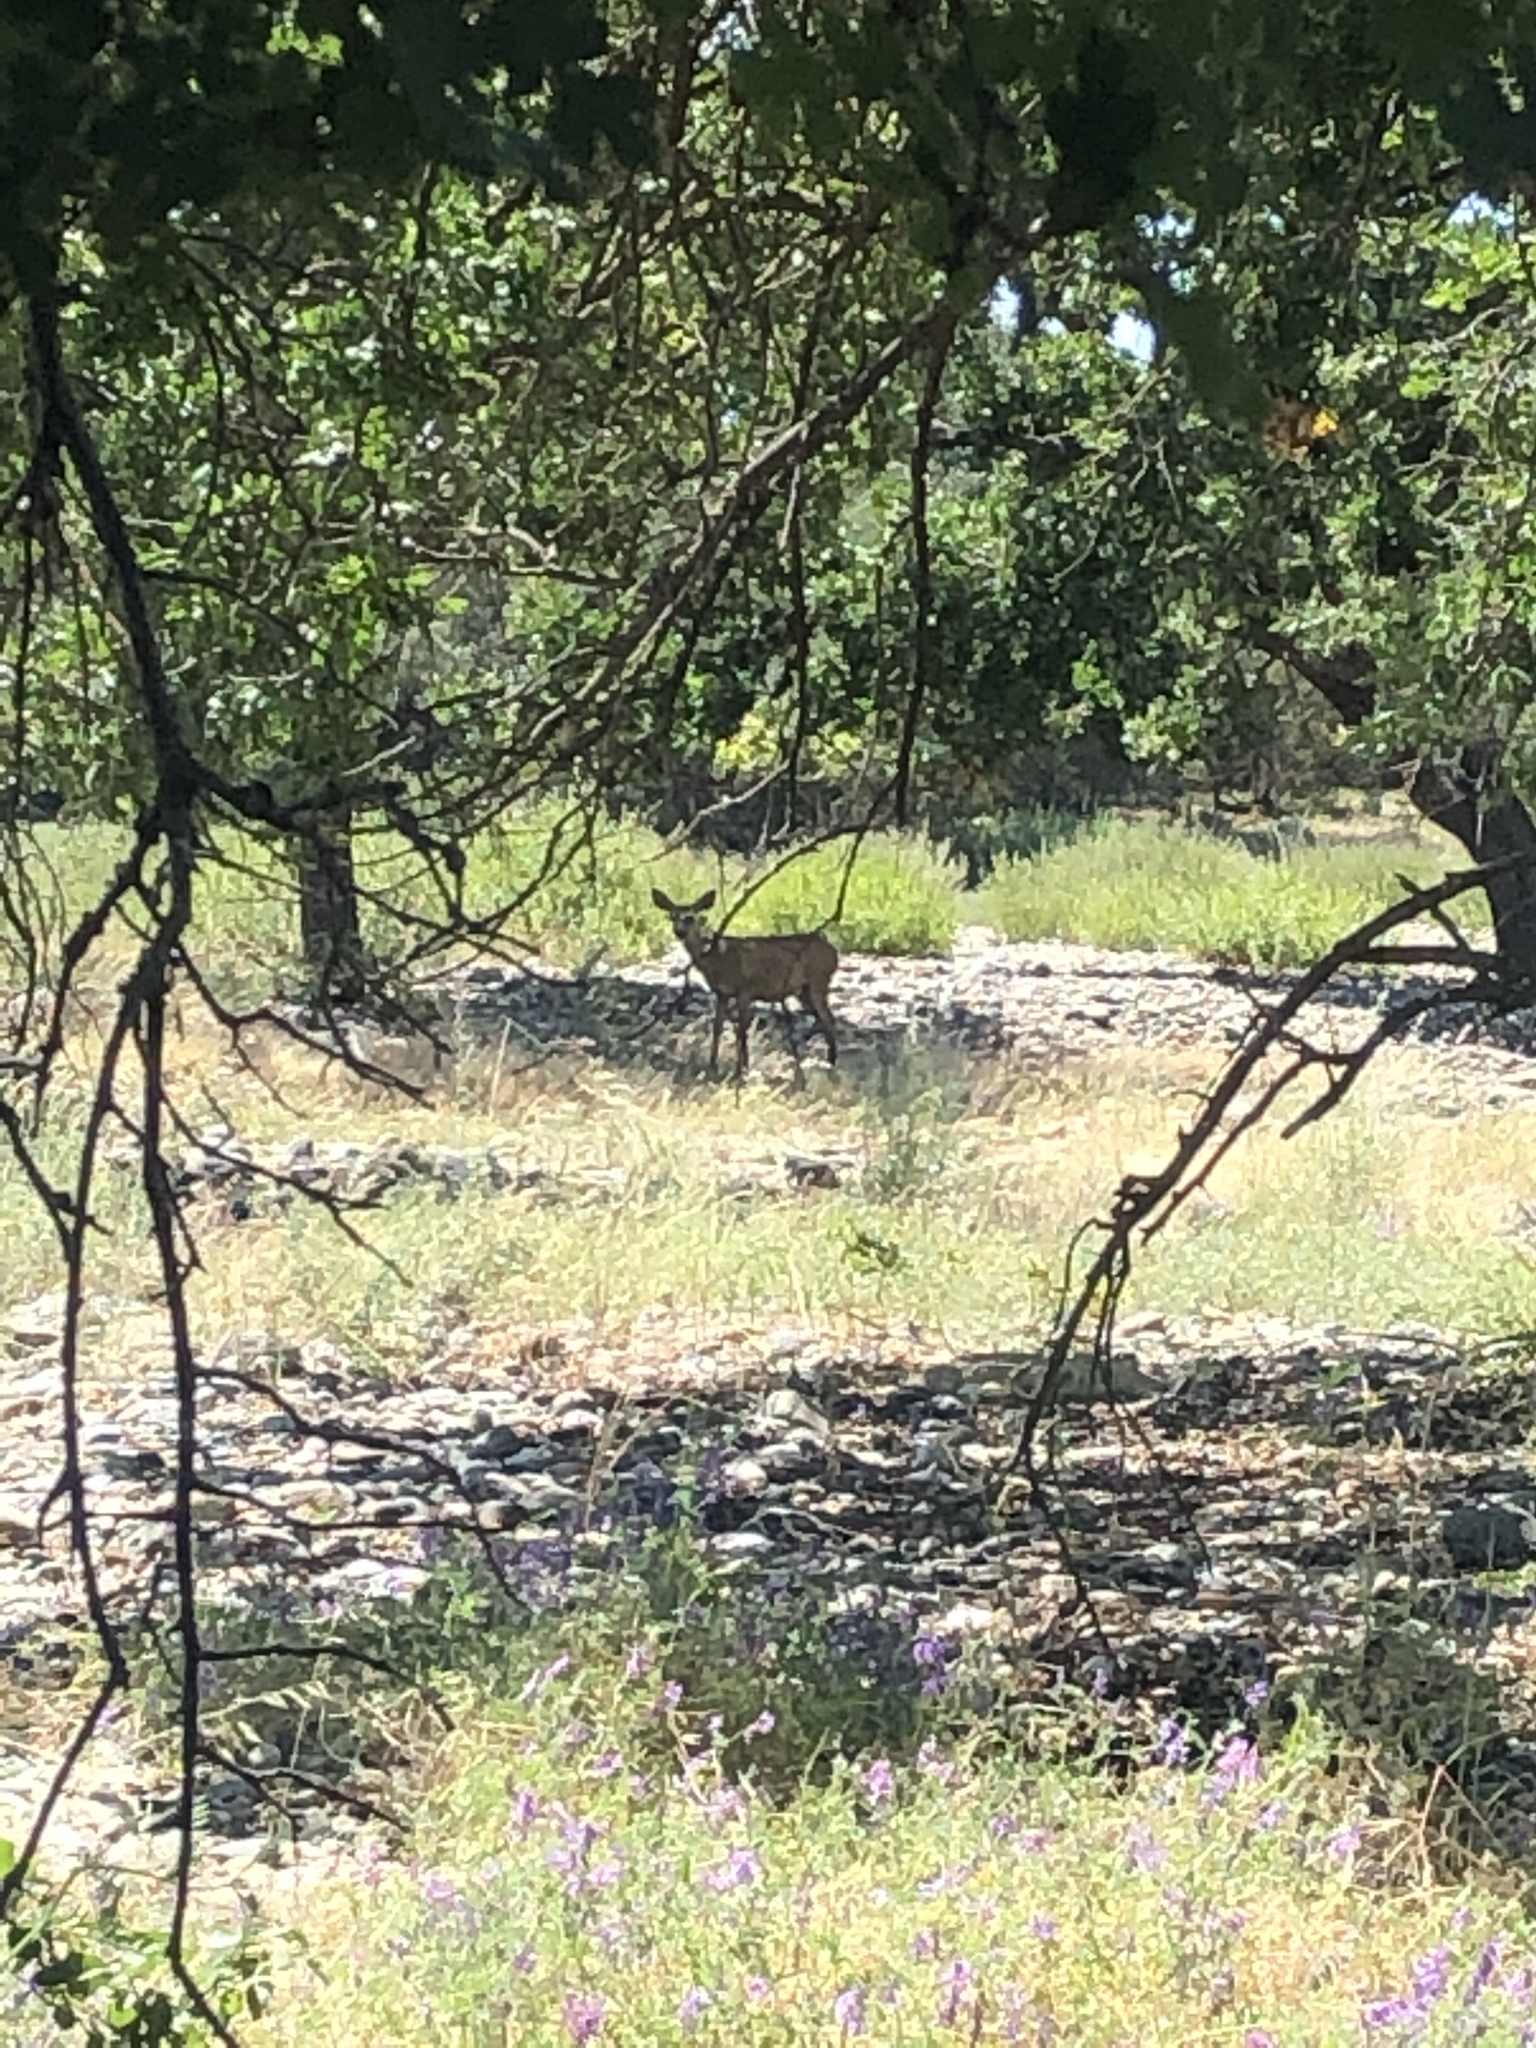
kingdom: Animalia
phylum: Chordata
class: Mammalia
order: Artiodactyla
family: Cervidae
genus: Odocoileus
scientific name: Odocoileus hemionus
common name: Mule deer
